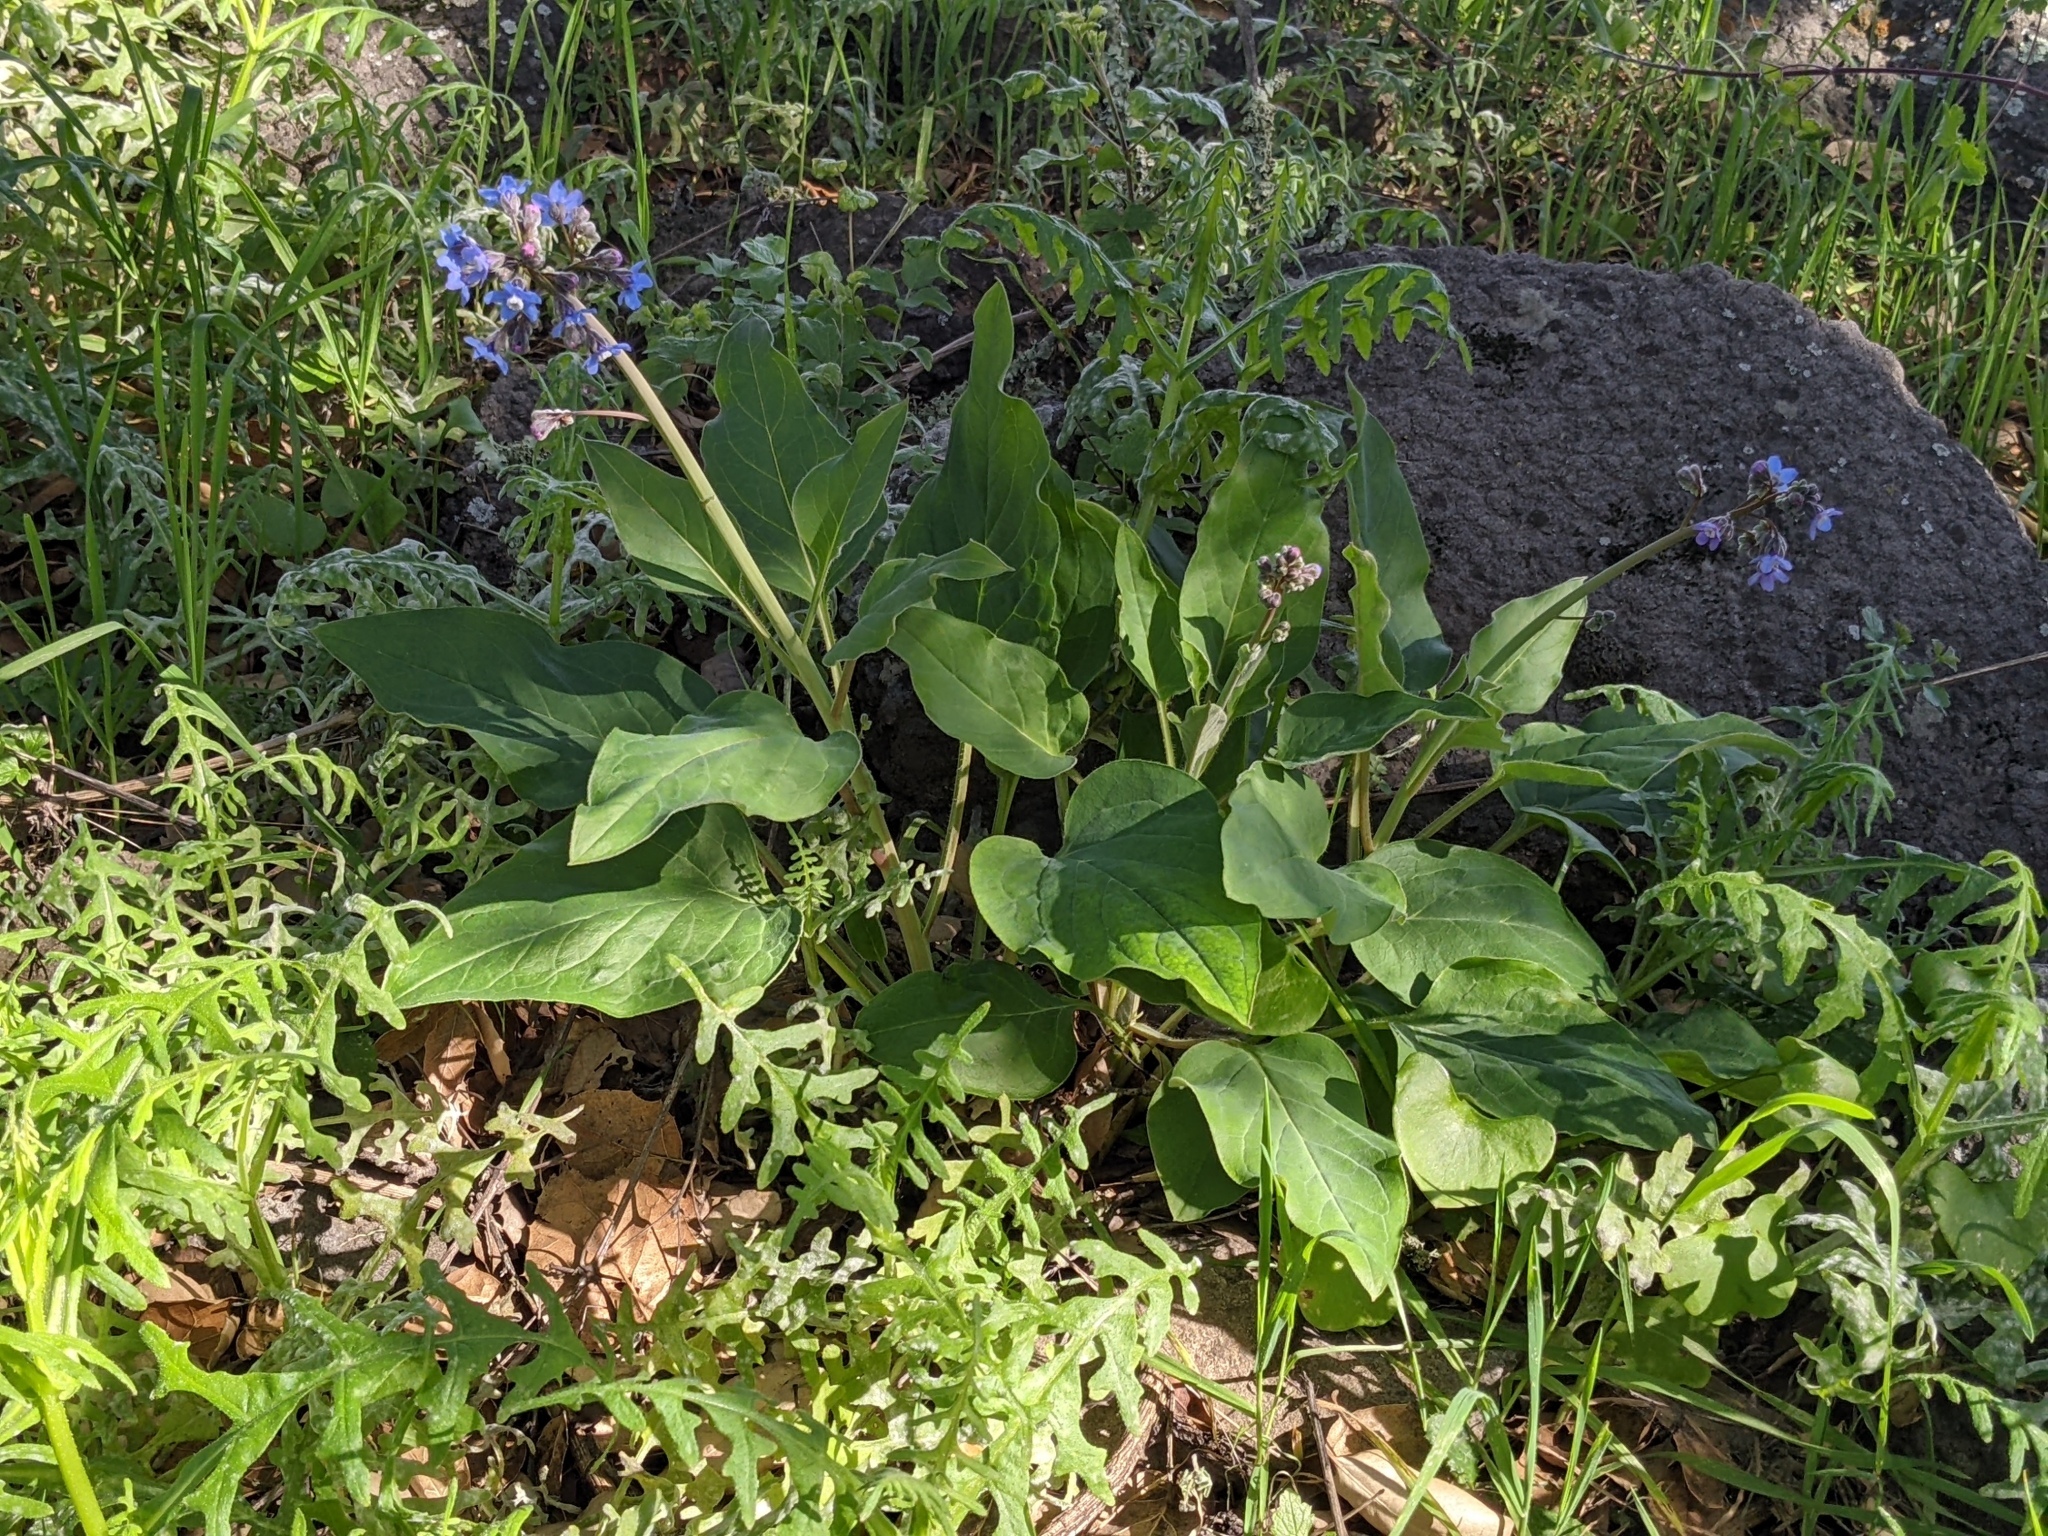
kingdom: Plantae
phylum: Tracheophyta
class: Magnoliopsida
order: Boraginales
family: Boraginaceae
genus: Adelinia
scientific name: Adelinia grande
